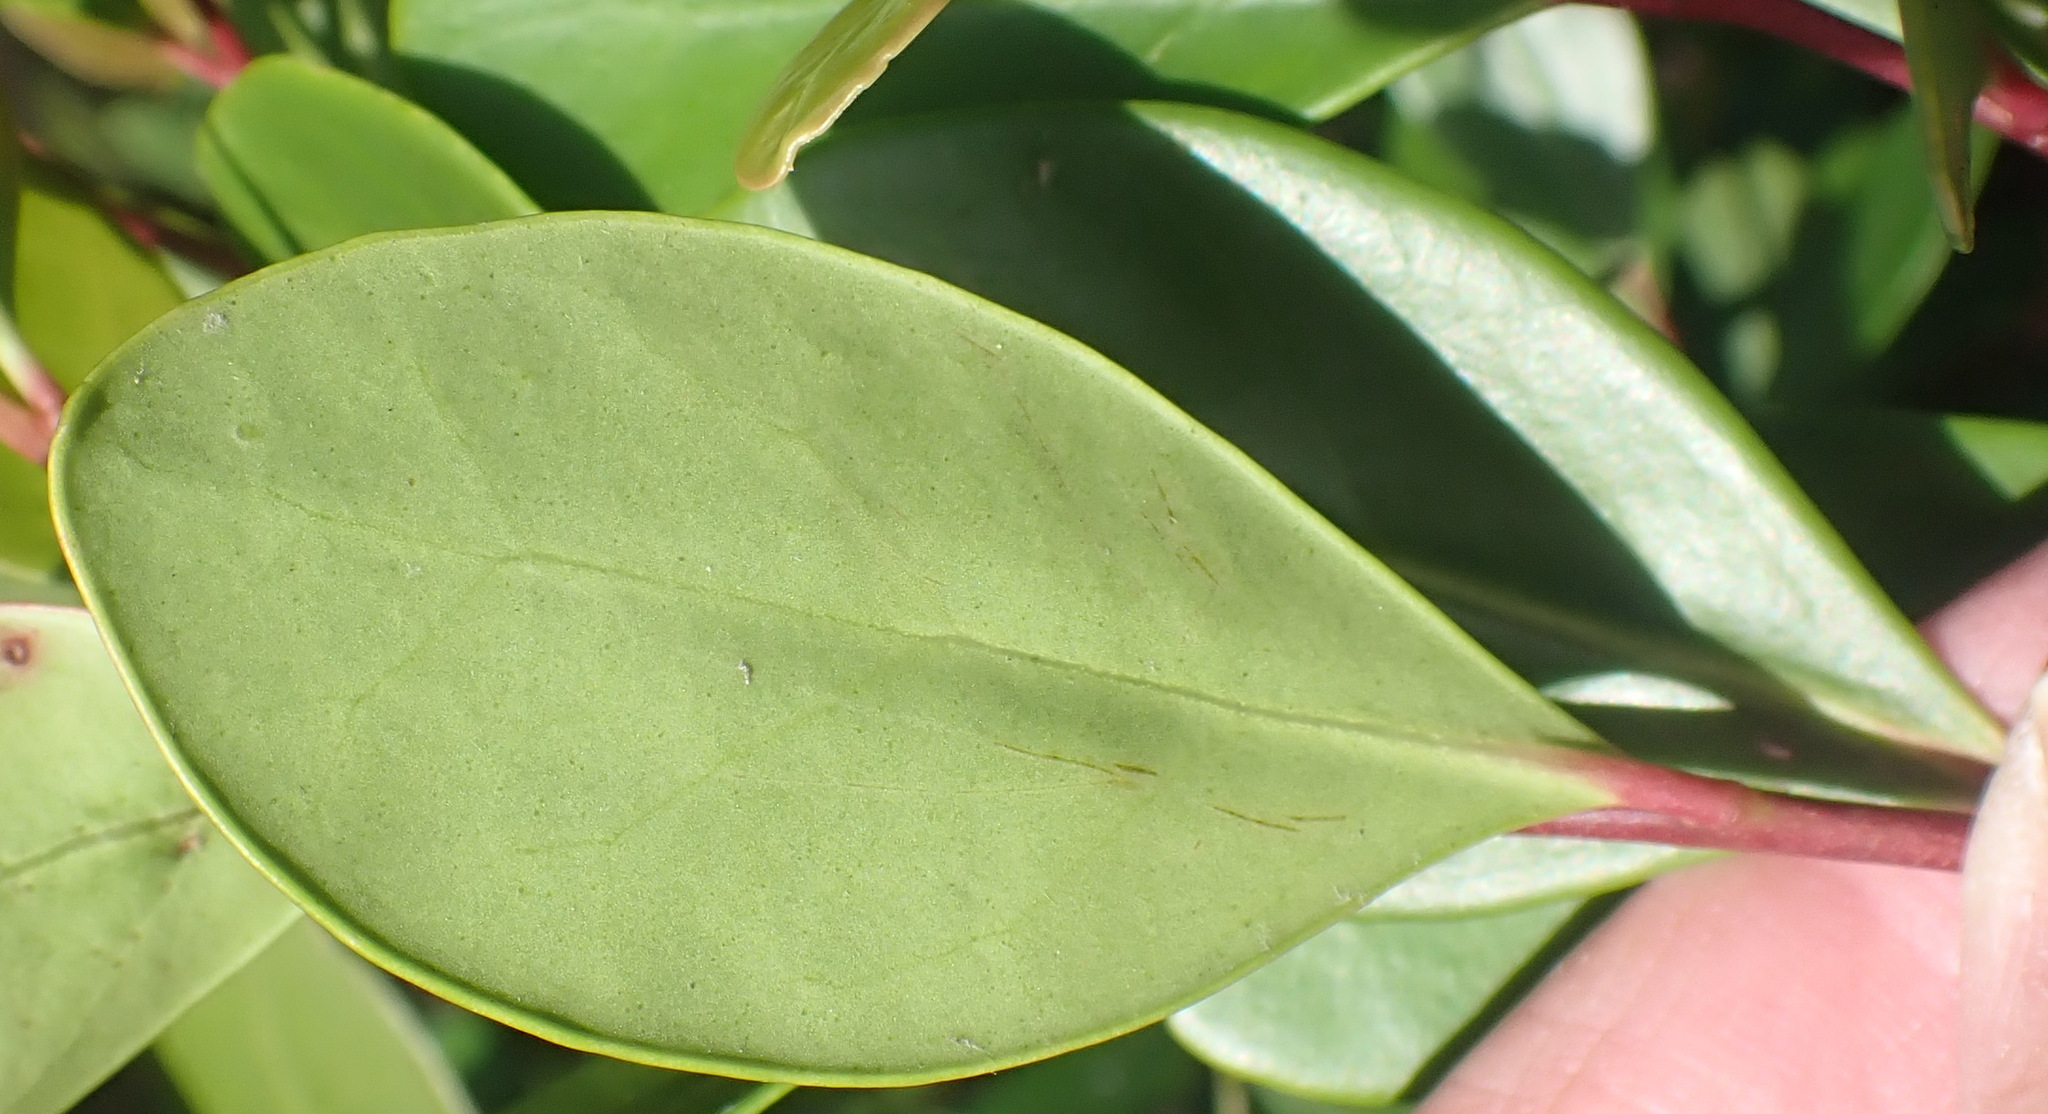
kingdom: Plantae
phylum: Tracheophyta
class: Magnoliopsida
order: Celastrales
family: Celastraceae
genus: Pterocelastrus
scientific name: Pterocelastrus tricuspidatus
